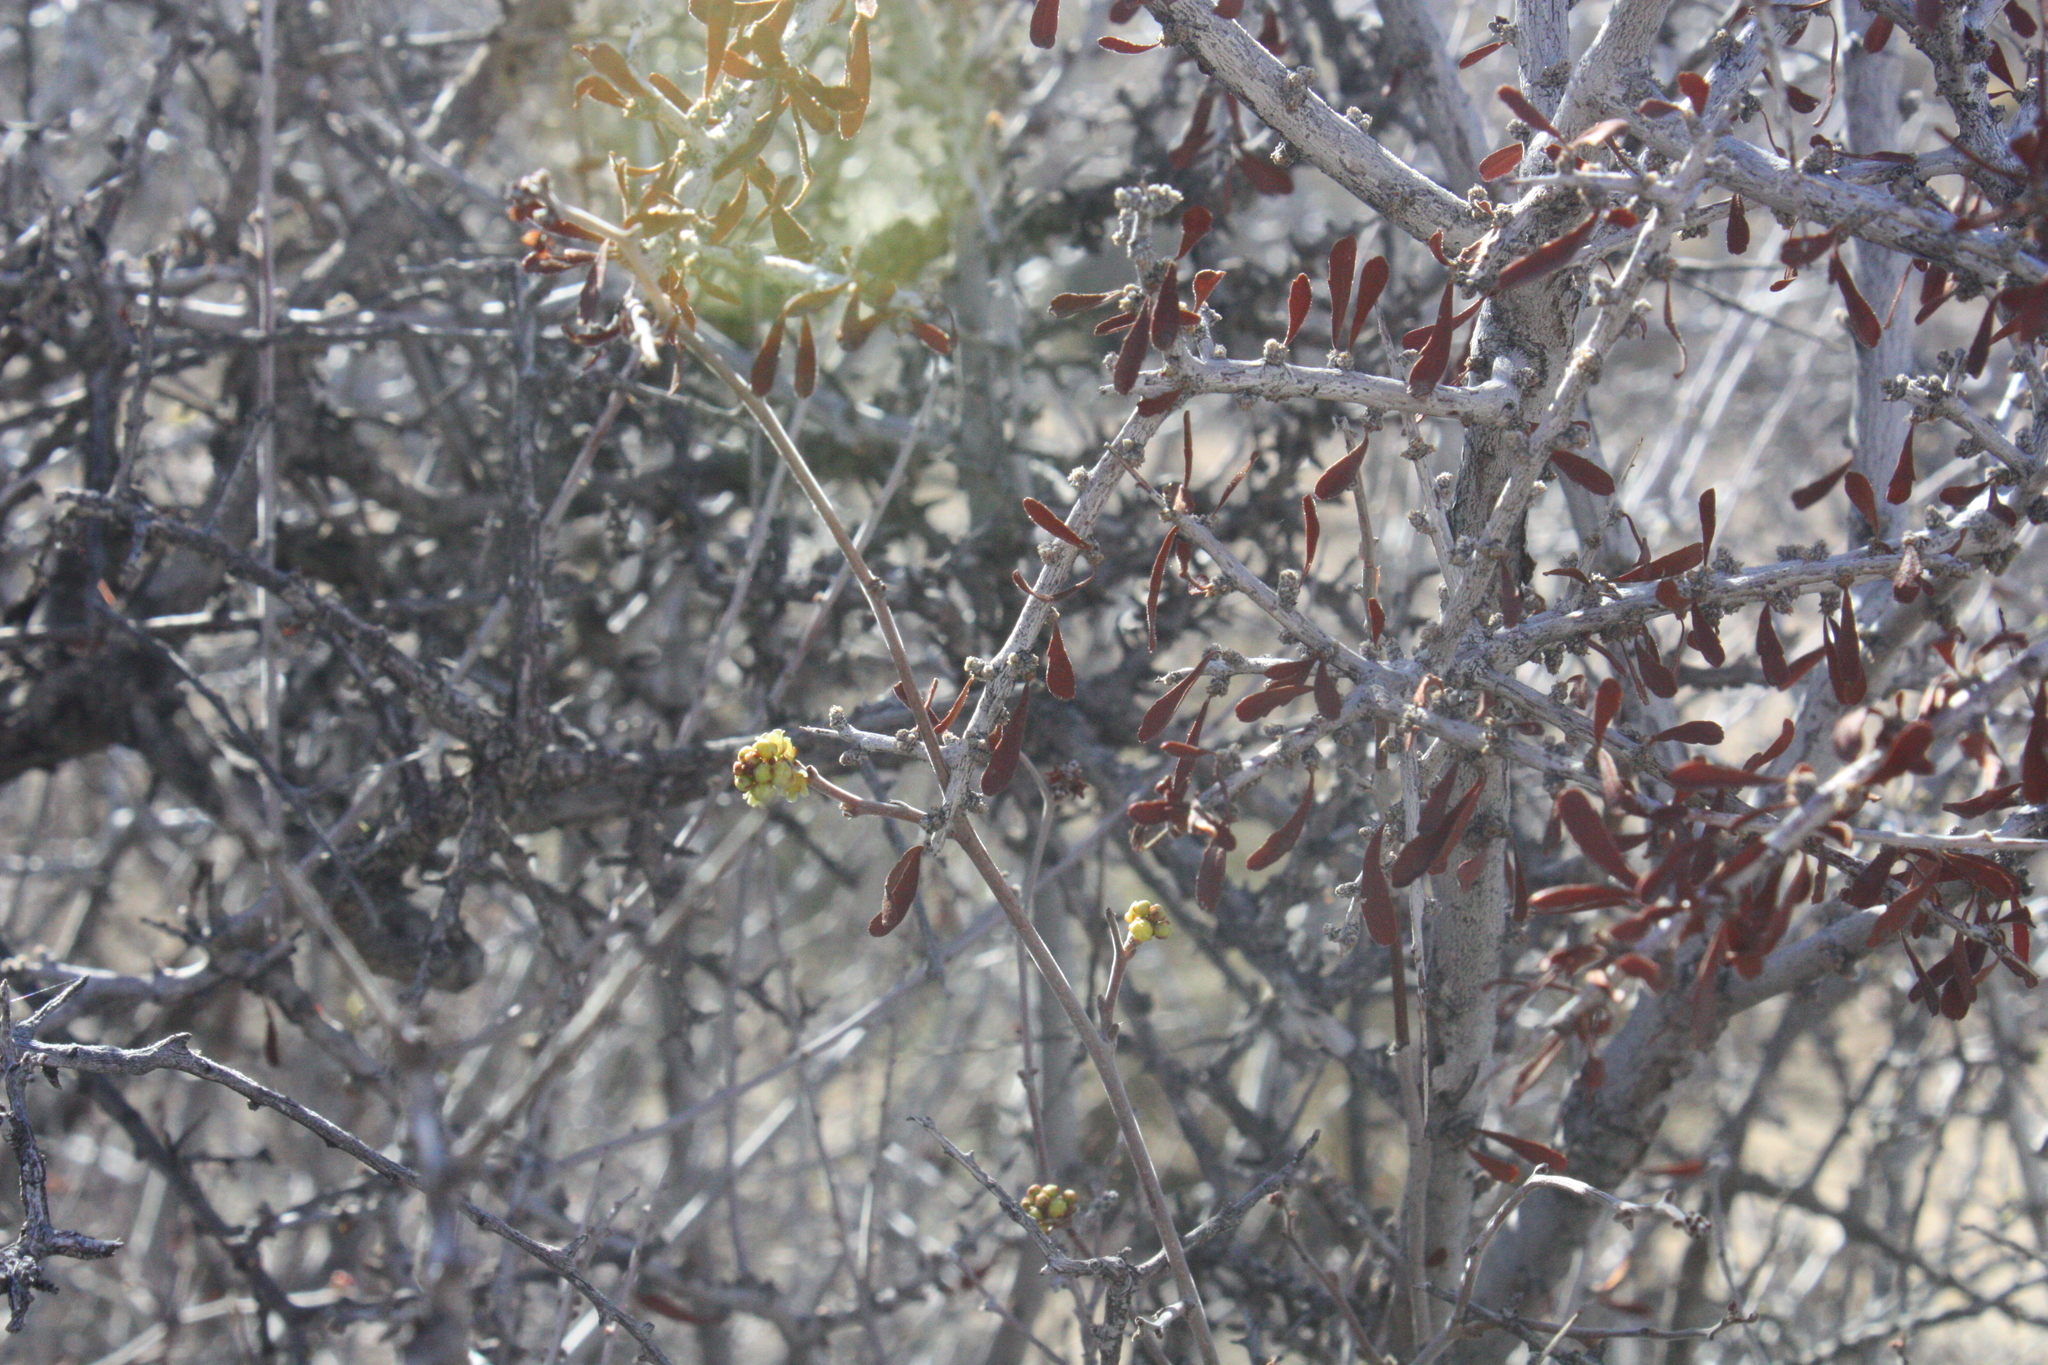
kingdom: Plantae
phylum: Tracheophyta
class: Magnoliopsida
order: Rosales
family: Rosaceae
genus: Prunus
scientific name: Prunus fasciculata
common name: Desert almond
